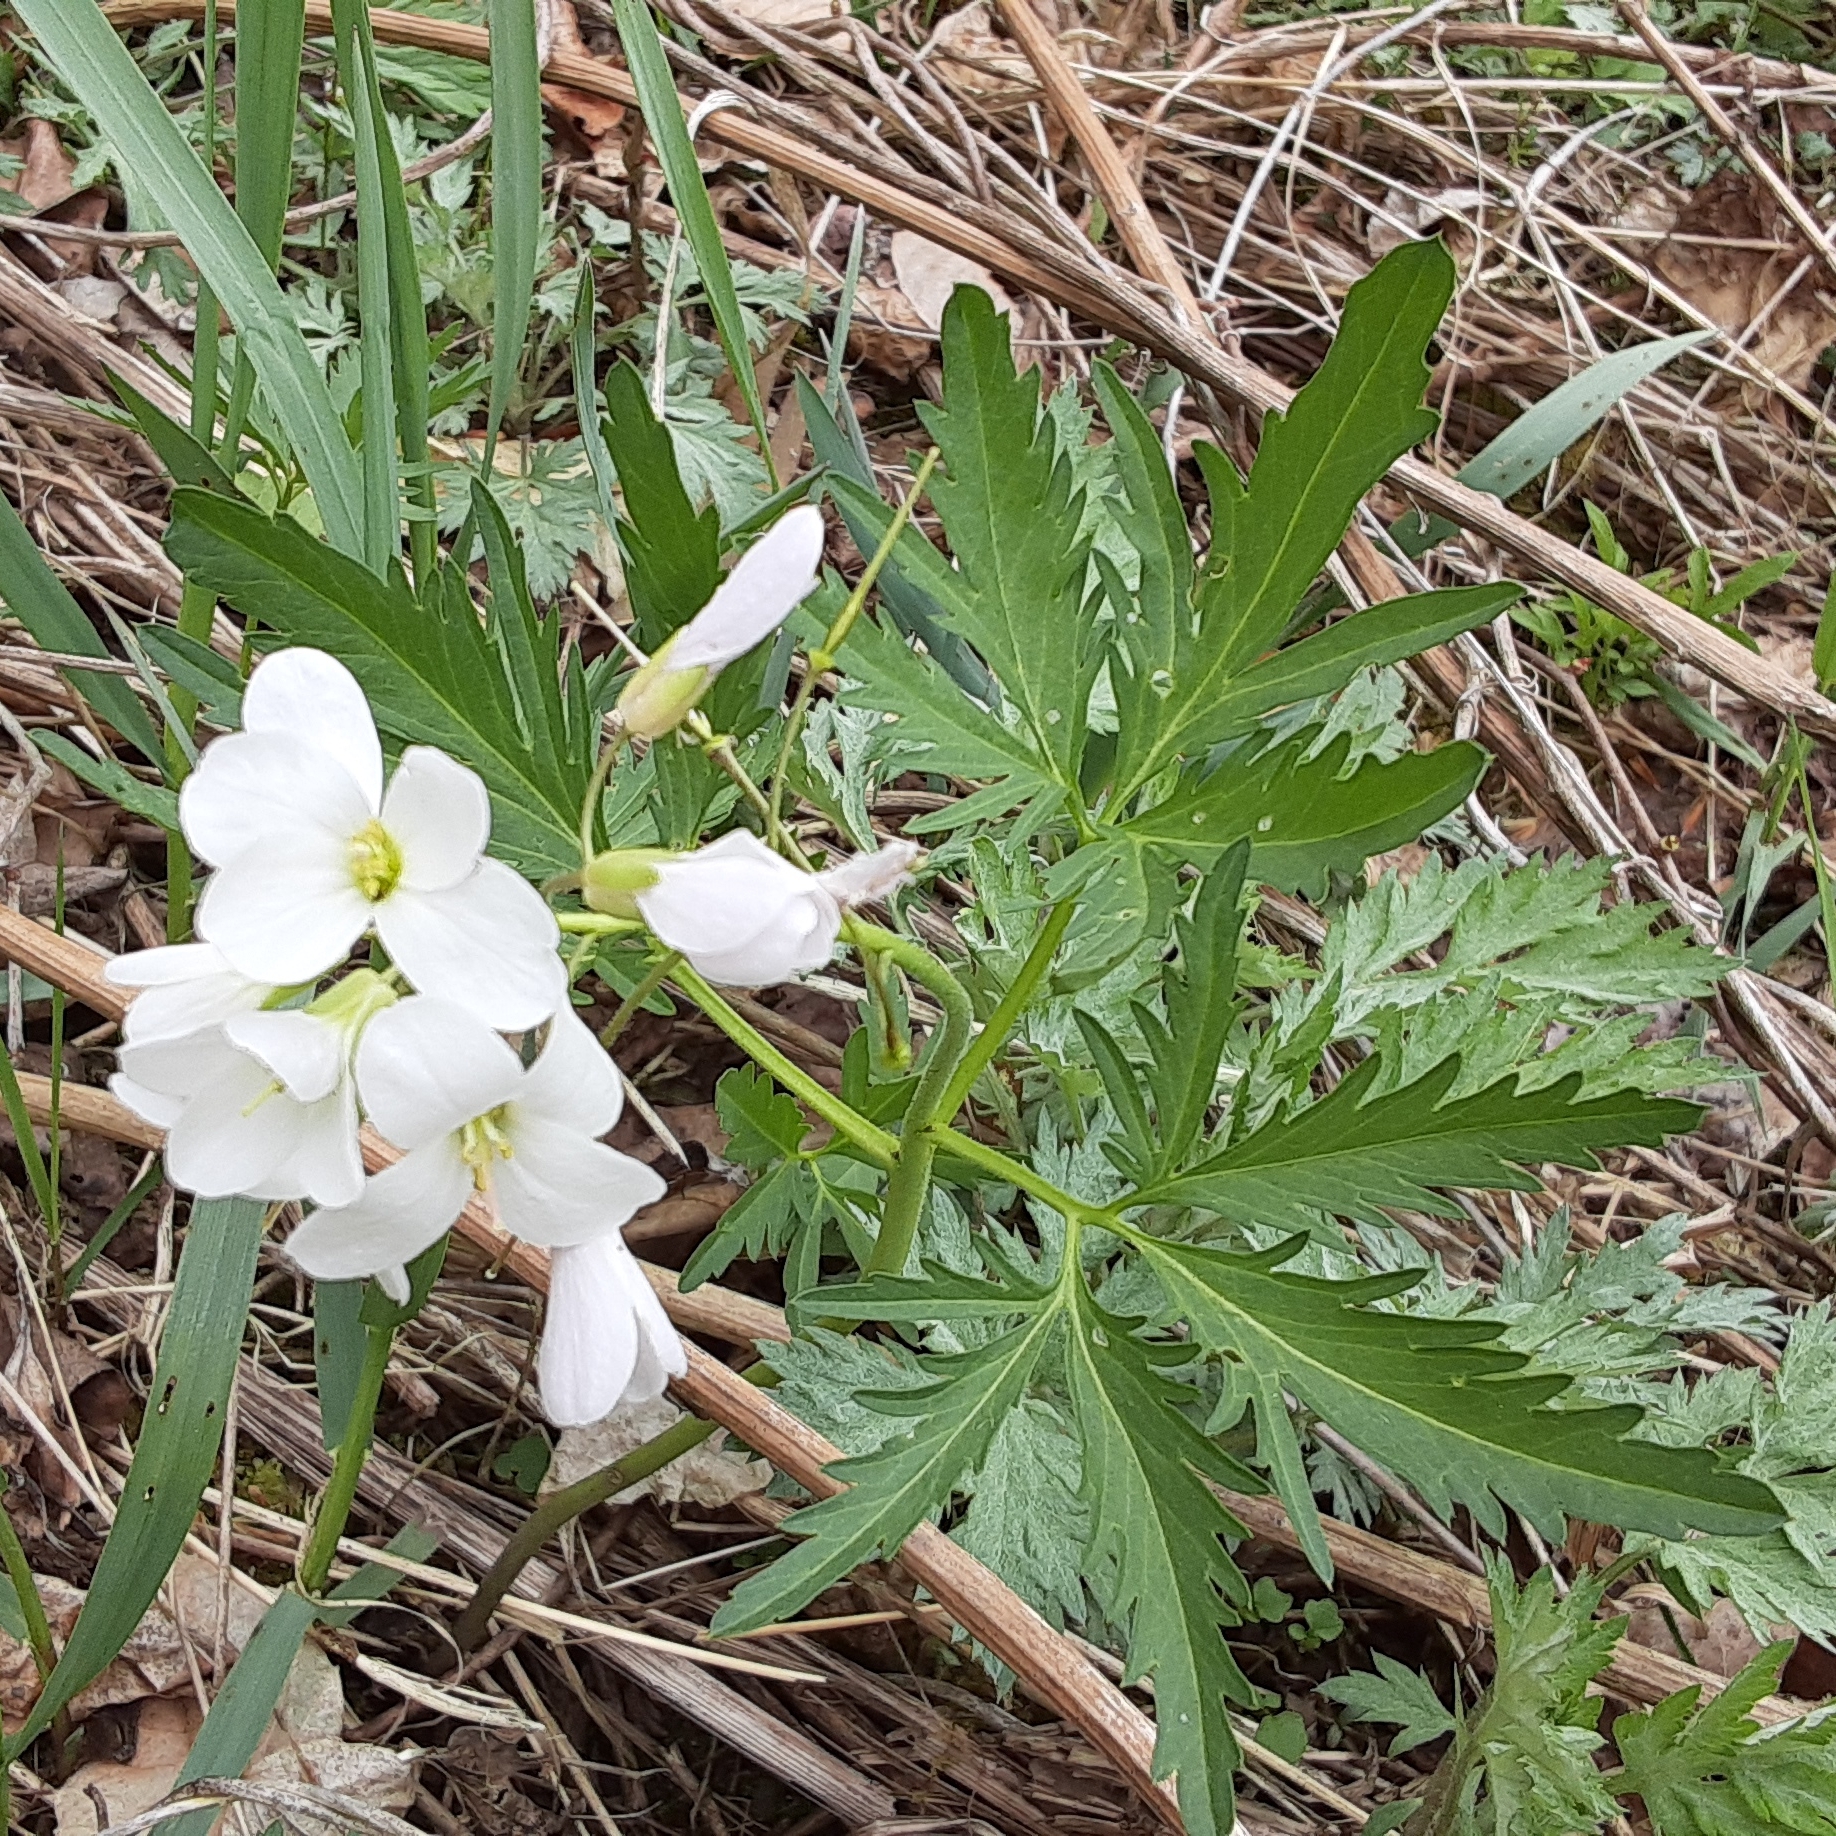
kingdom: Plantae
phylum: Tracheophyta
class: Magnoliopsida
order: Brassicales
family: Brassicaceae
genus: Cardamine
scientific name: Cardamine concatenata
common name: Cut-leaf toothcup
